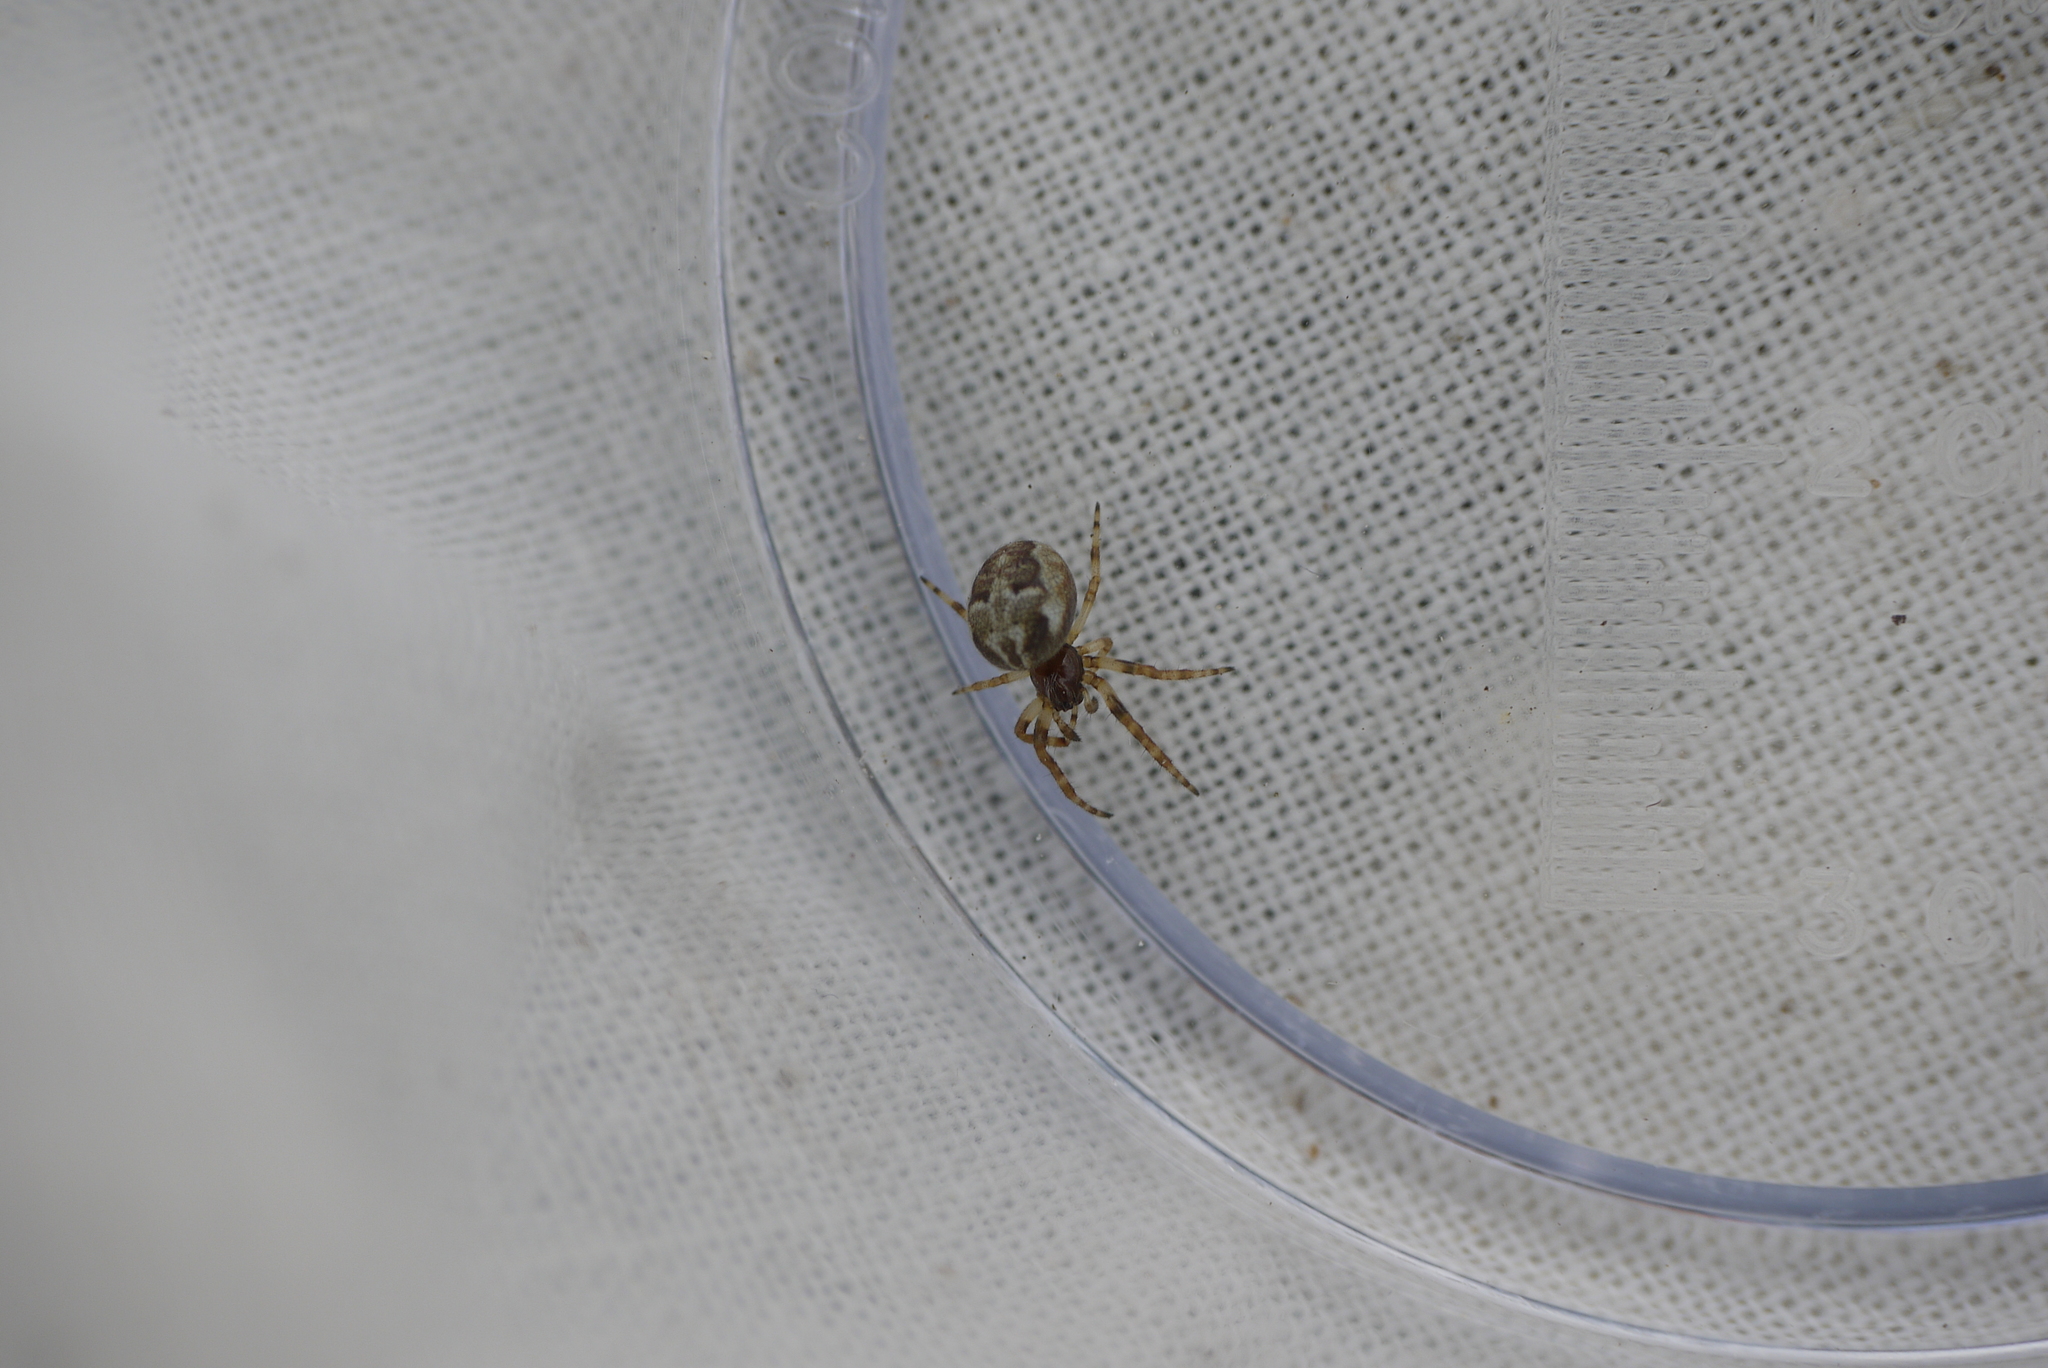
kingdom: Animalia
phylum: Arthropoda
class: Arachnida
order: Araneae
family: Araneidae
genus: Larinioides
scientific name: Larinioides cornutus
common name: Furrow orbweaver
